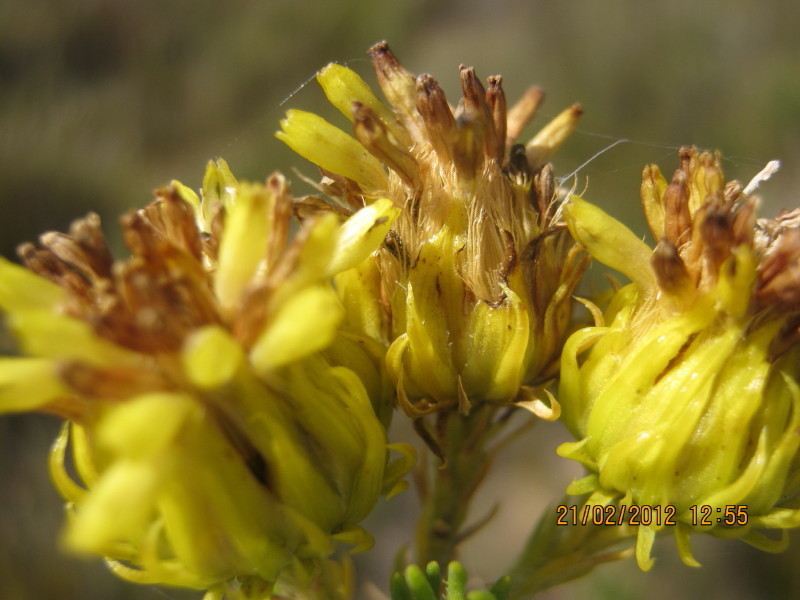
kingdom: Plantae
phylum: Tracheophyta
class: Magnoliopsida
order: Asterales
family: Asteraceae
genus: Pteronia
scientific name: Pteronia camphorata
